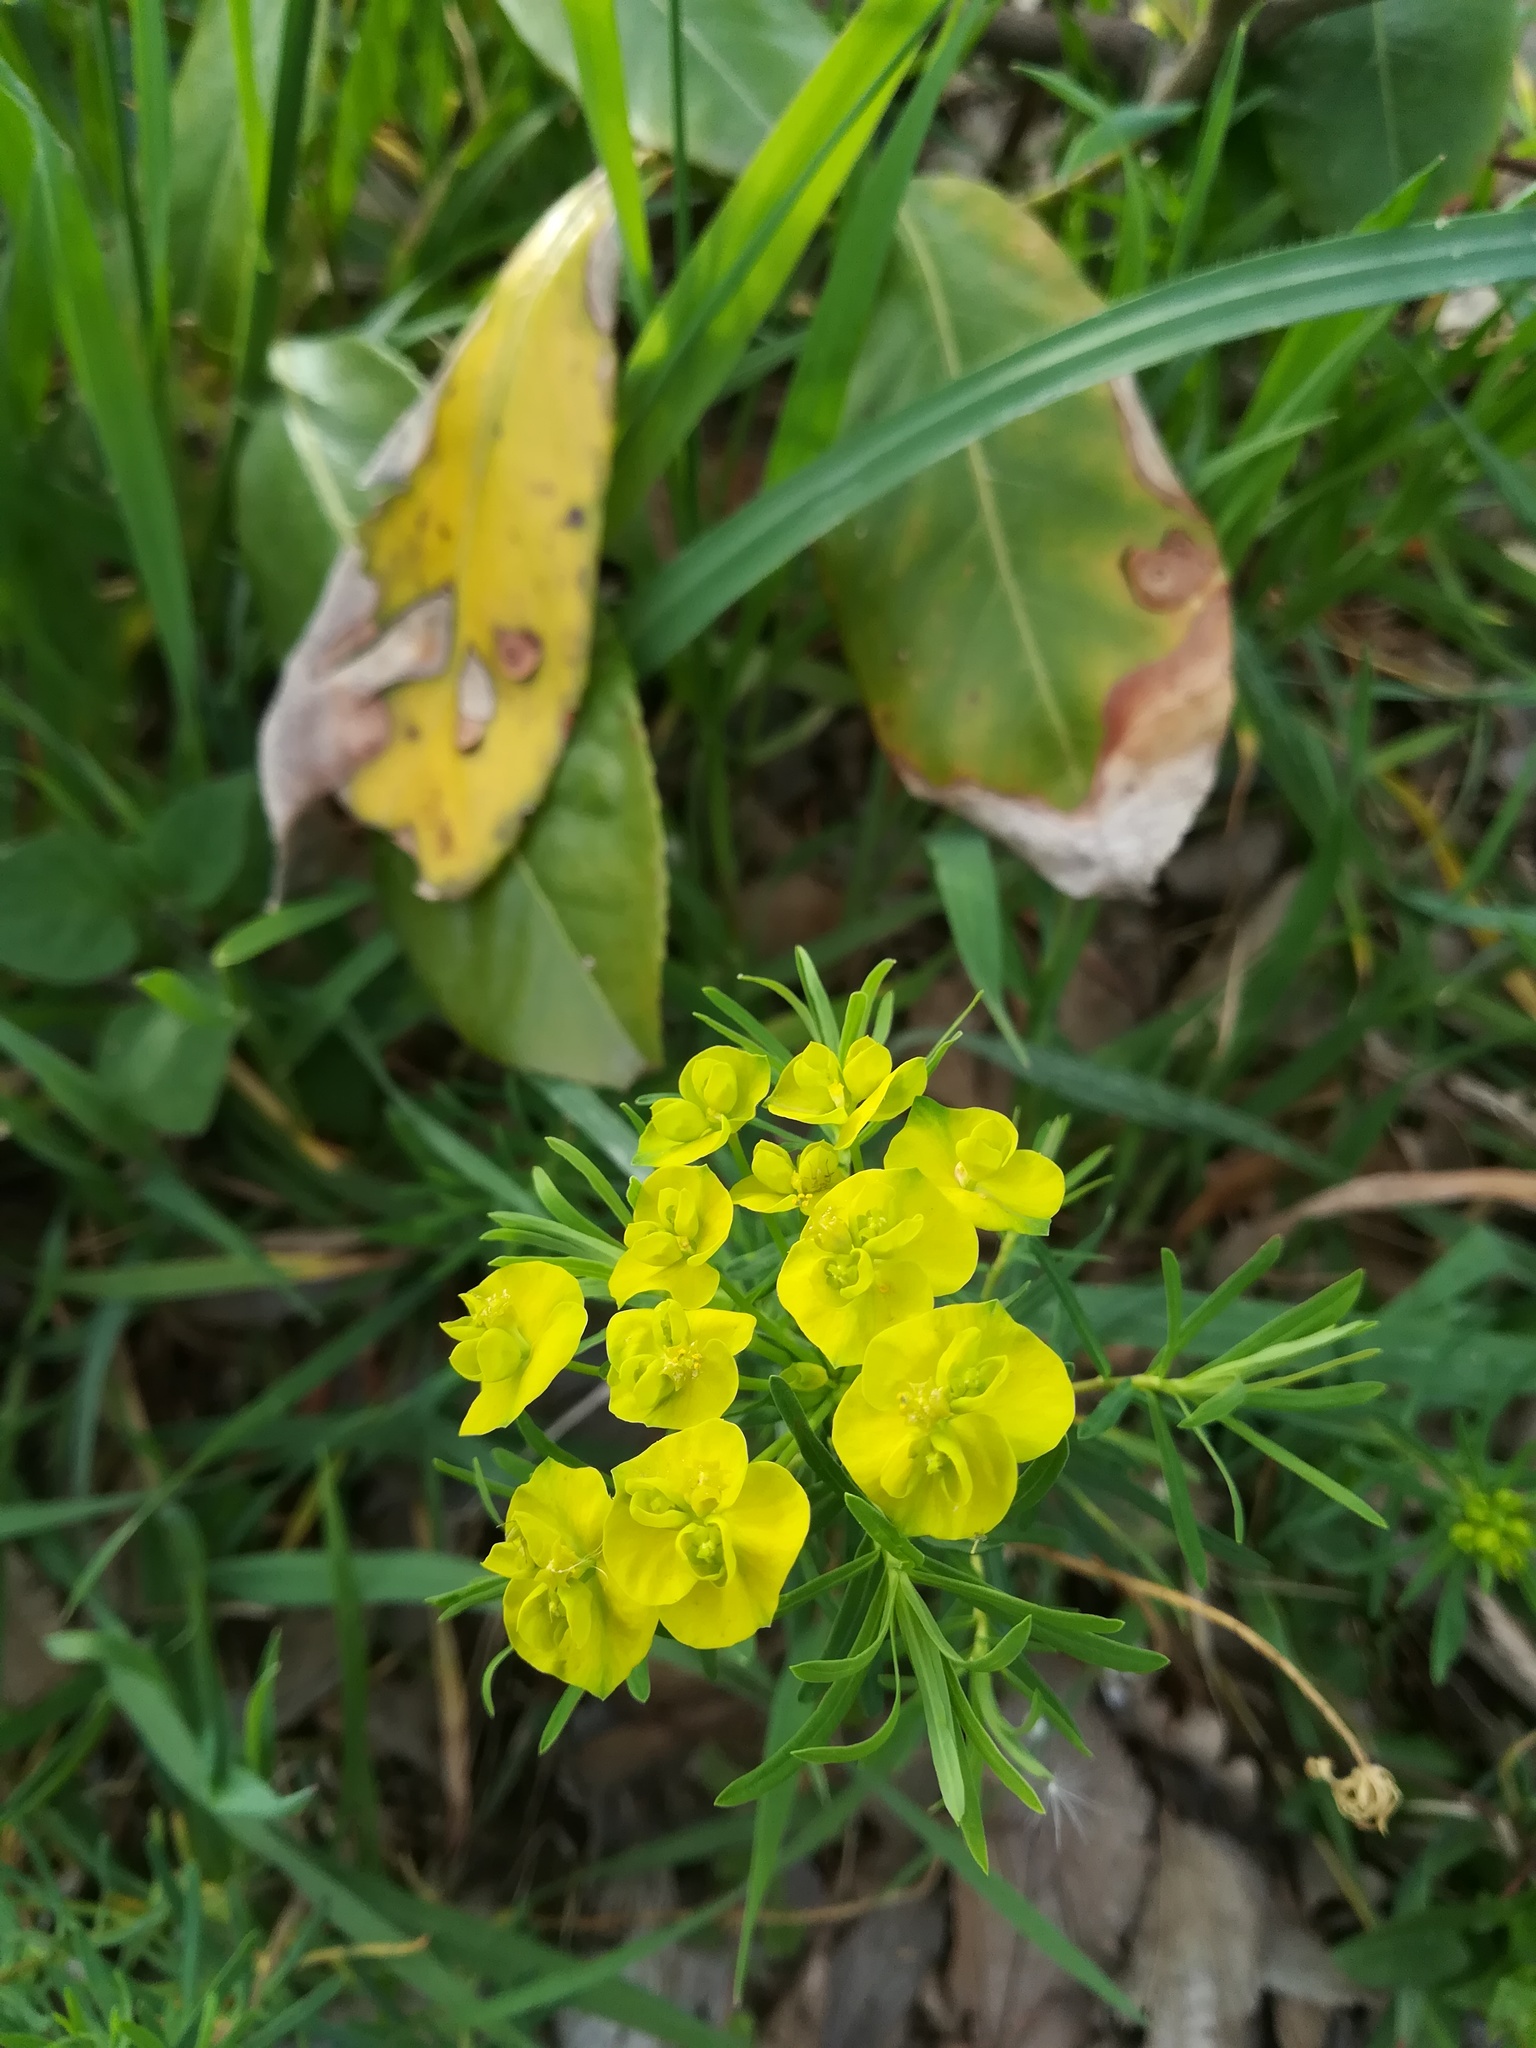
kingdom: Plantae
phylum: Tracheophyta
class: Magnoliopsida
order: Malpighiales
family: Euphorbiaceae
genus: Euphorbia
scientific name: Euphorbia cyparissias
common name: Cypress spurge
